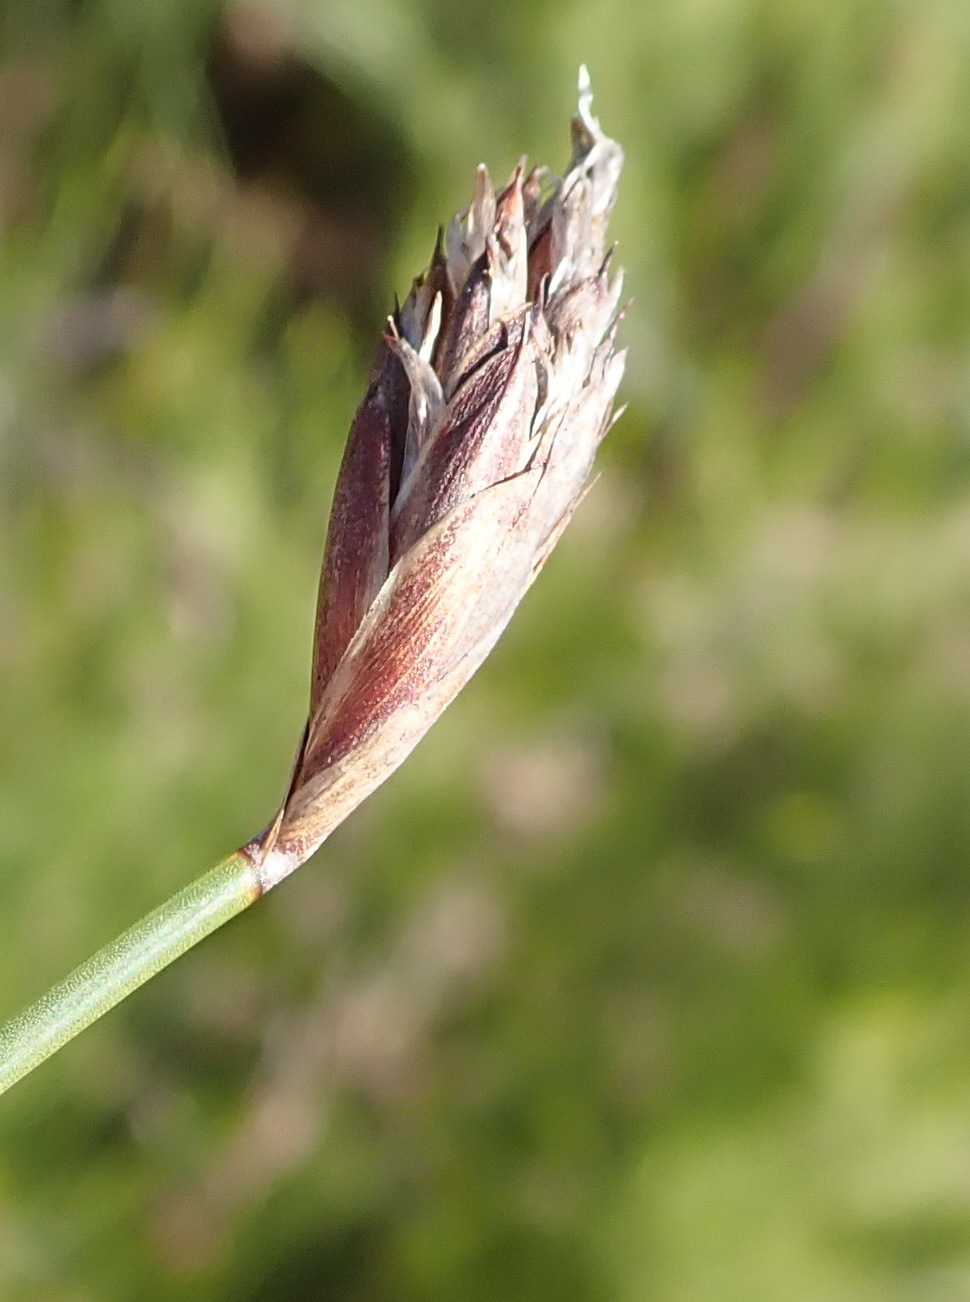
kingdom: Plantae
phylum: Tracheophyta
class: Liliopsida
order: Poales
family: Restionaceae
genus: Hypodiscus
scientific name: Hypodiscus willdenowia
